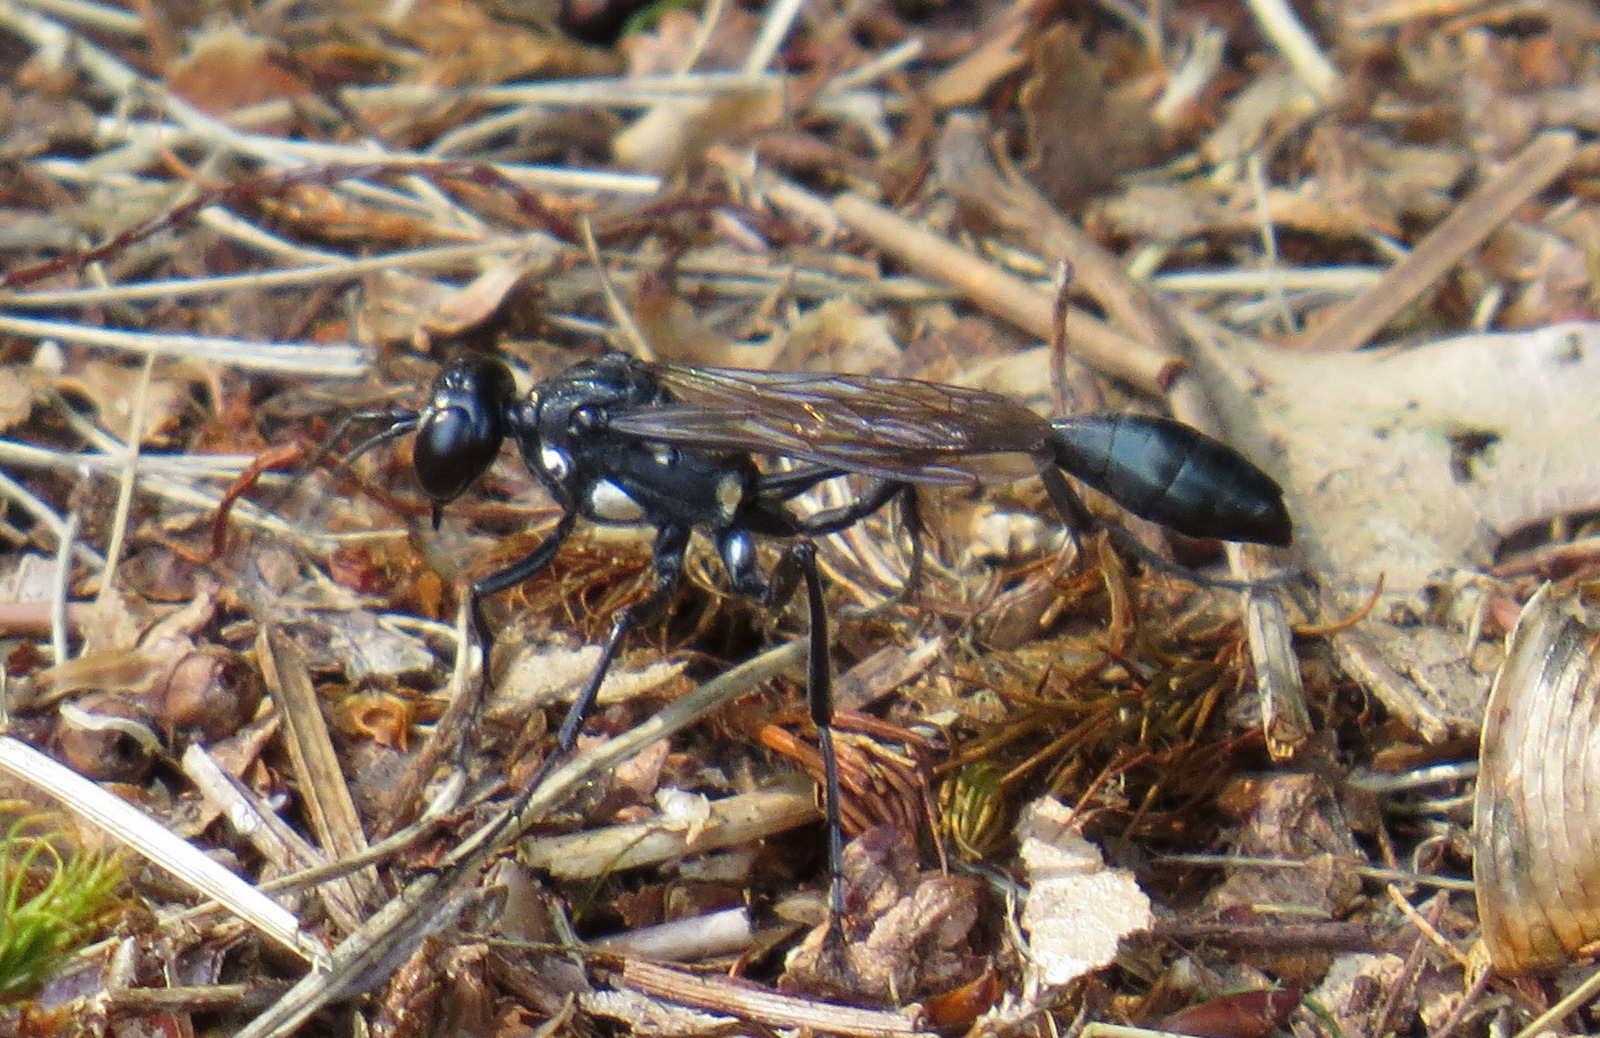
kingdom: Animalia
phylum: Arthropoda
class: Insecta
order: Hymenoptera
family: Sphecidae
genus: Eremnophila
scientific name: Eremnophila aureonotata
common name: Gold-marked thread-waisted wasp
